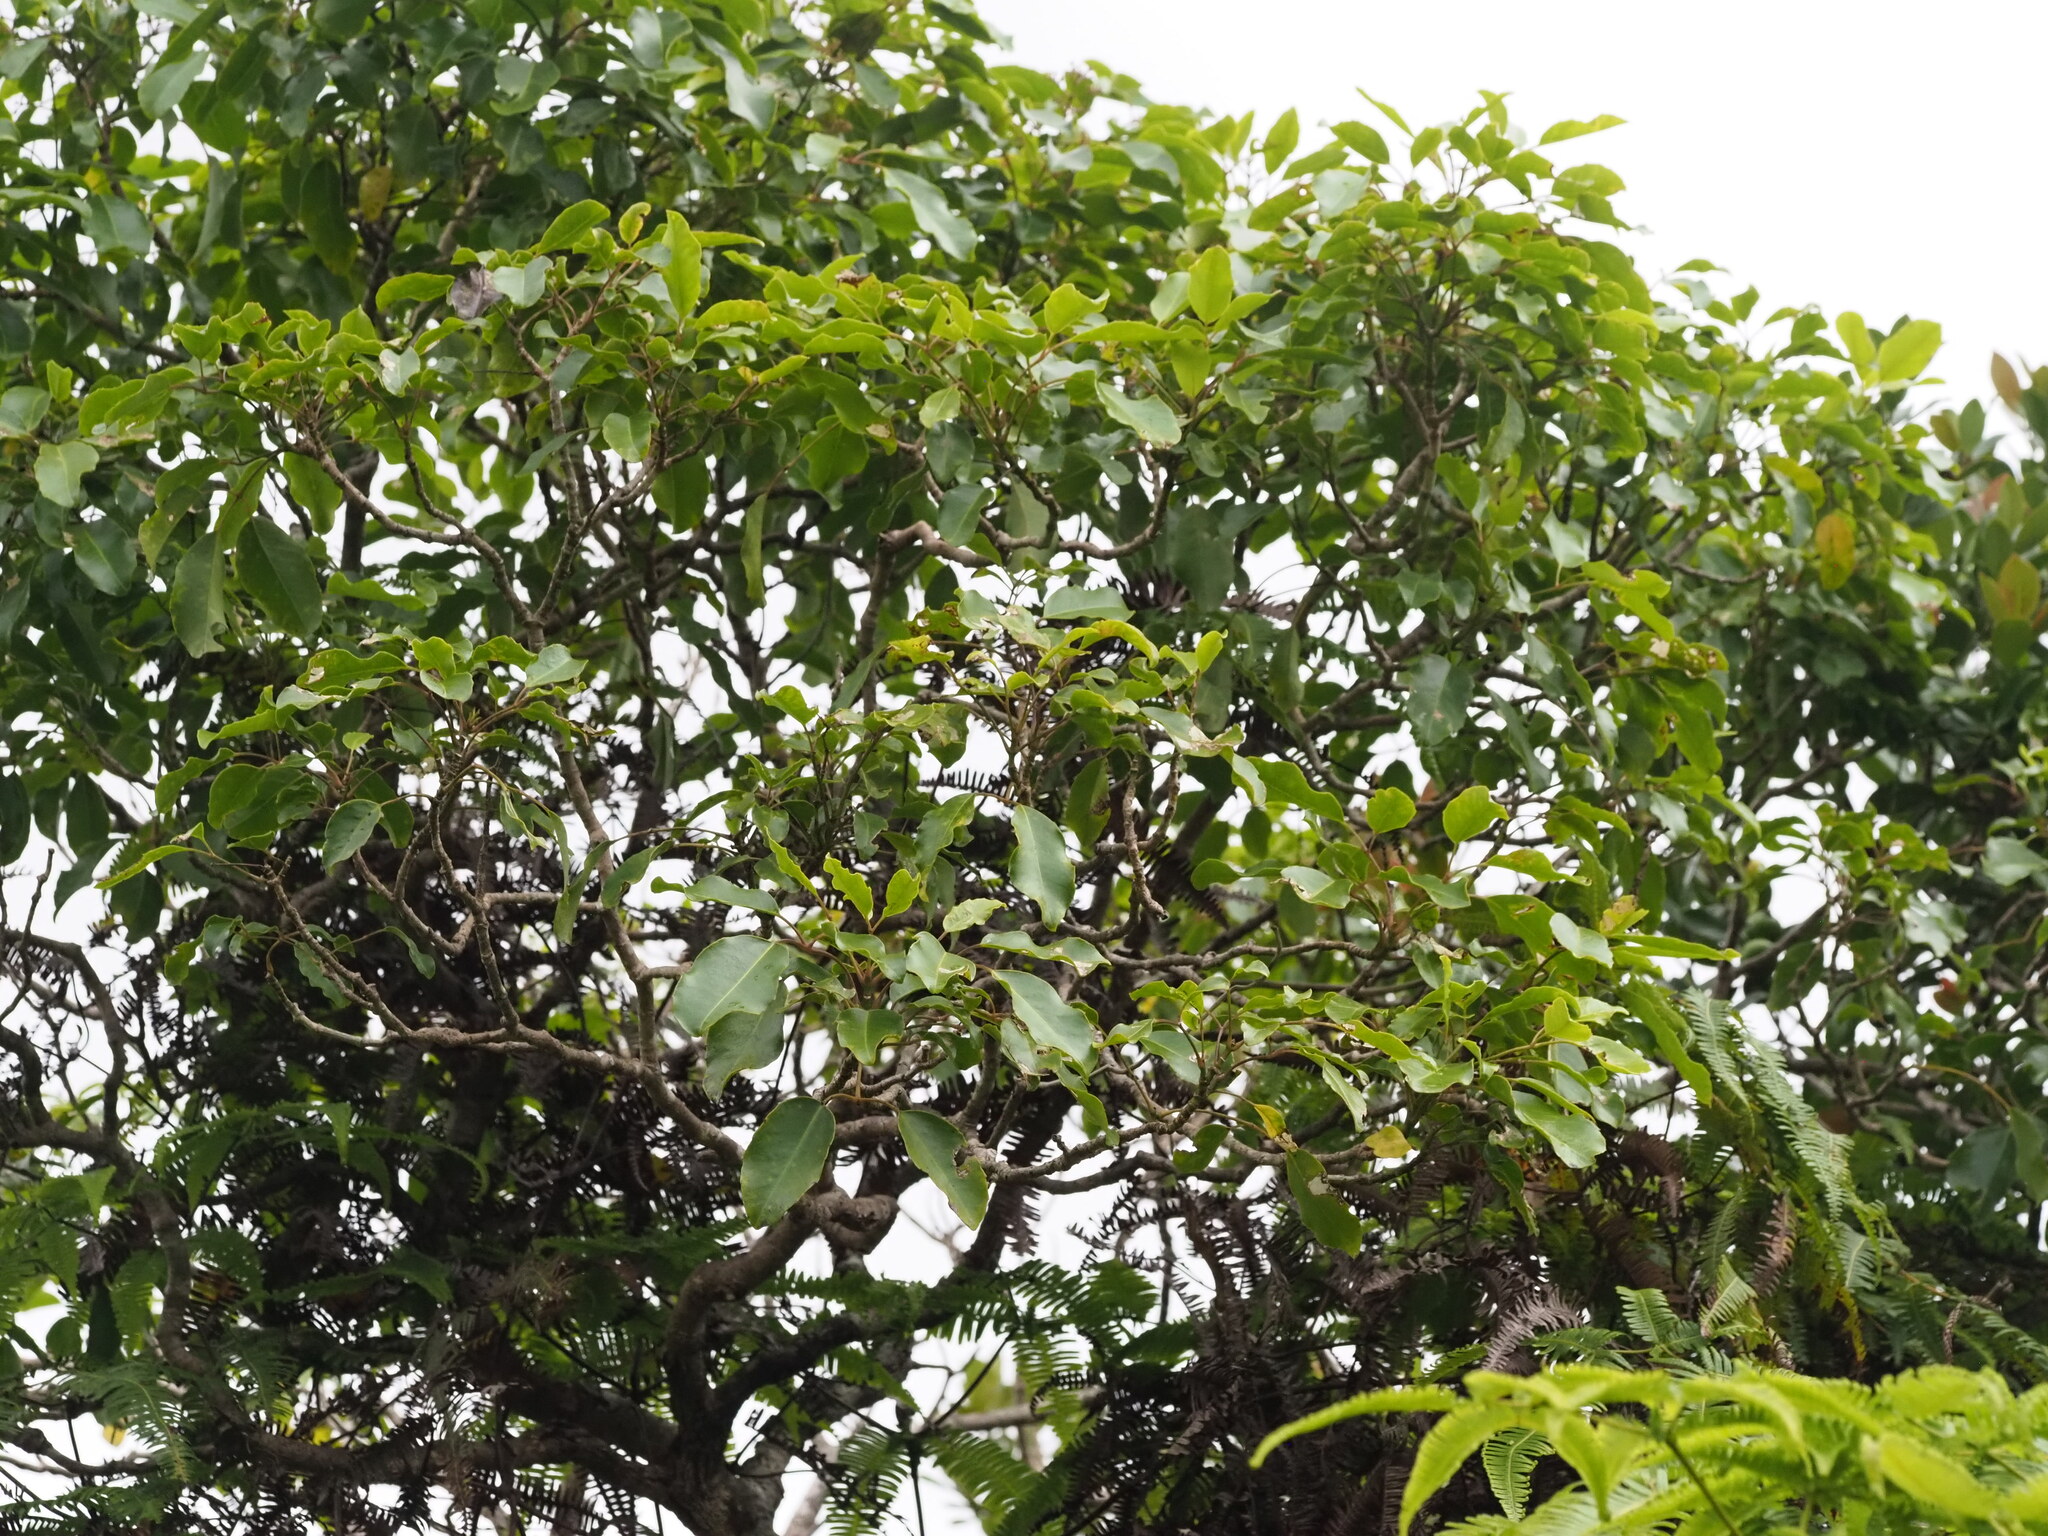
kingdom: Plantae
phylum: Tracheophyta
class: Magnoliopsida
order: Apiales
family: Araliaceae
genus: Cheirodendron
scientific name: Cheirodendron trigynum
